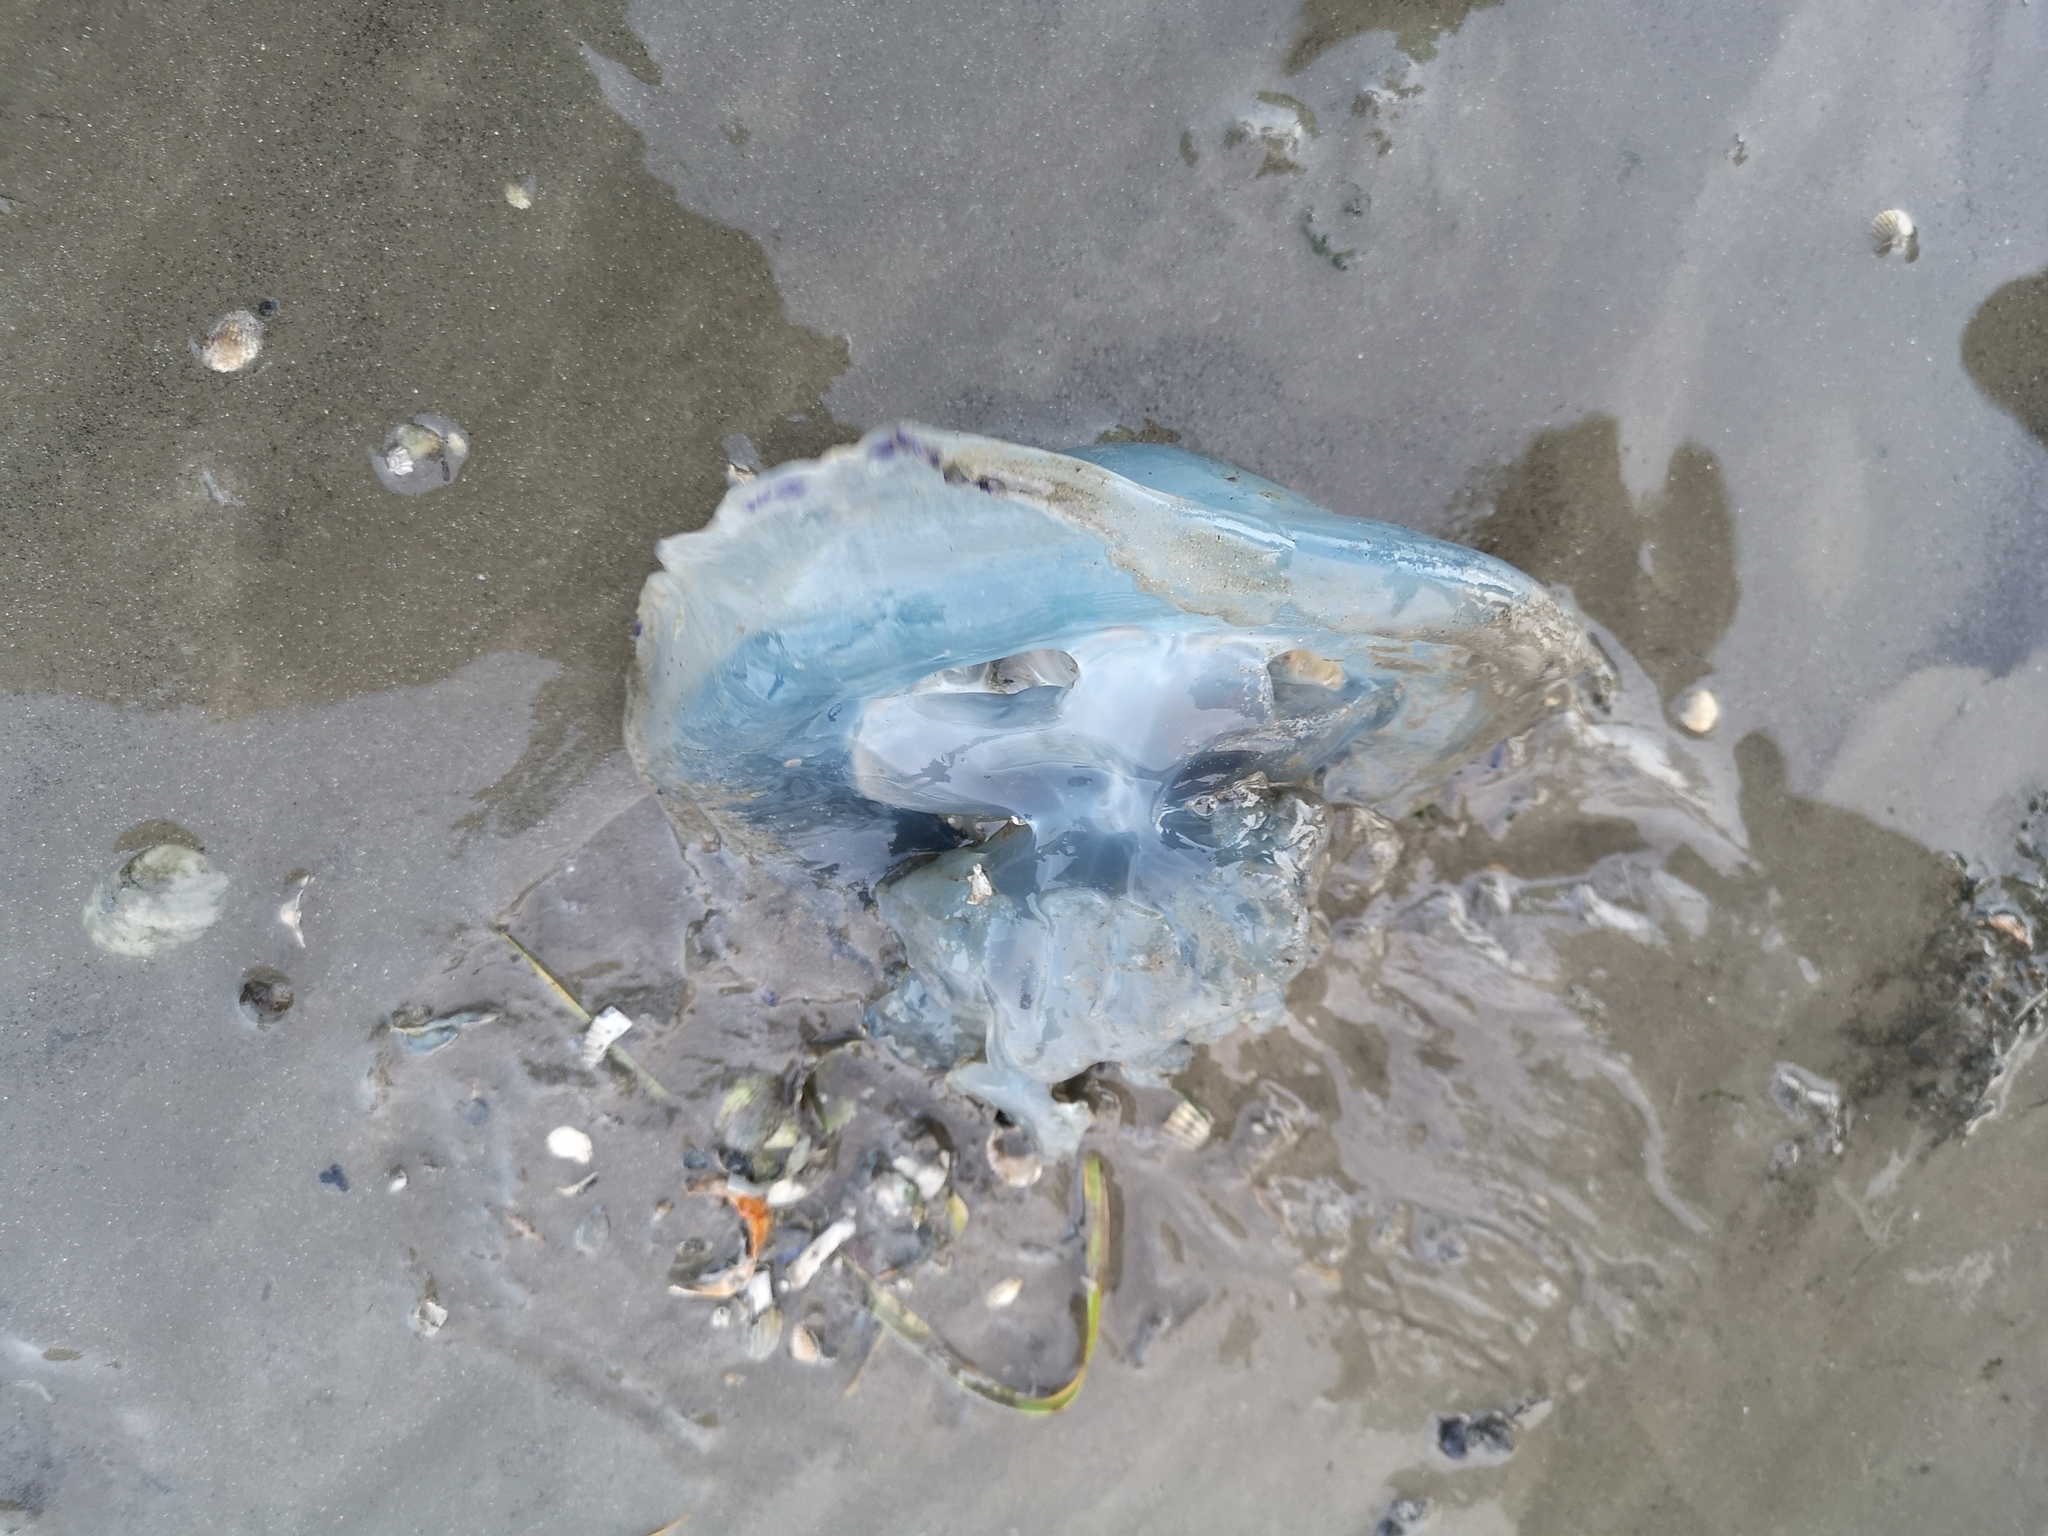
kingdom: Animalia
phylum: Cnidaria
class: Scyphozoa
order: Rhizostomeae
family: Rhizostomatidae
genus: Rhizostoma
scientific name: Rhizostoma octopus
